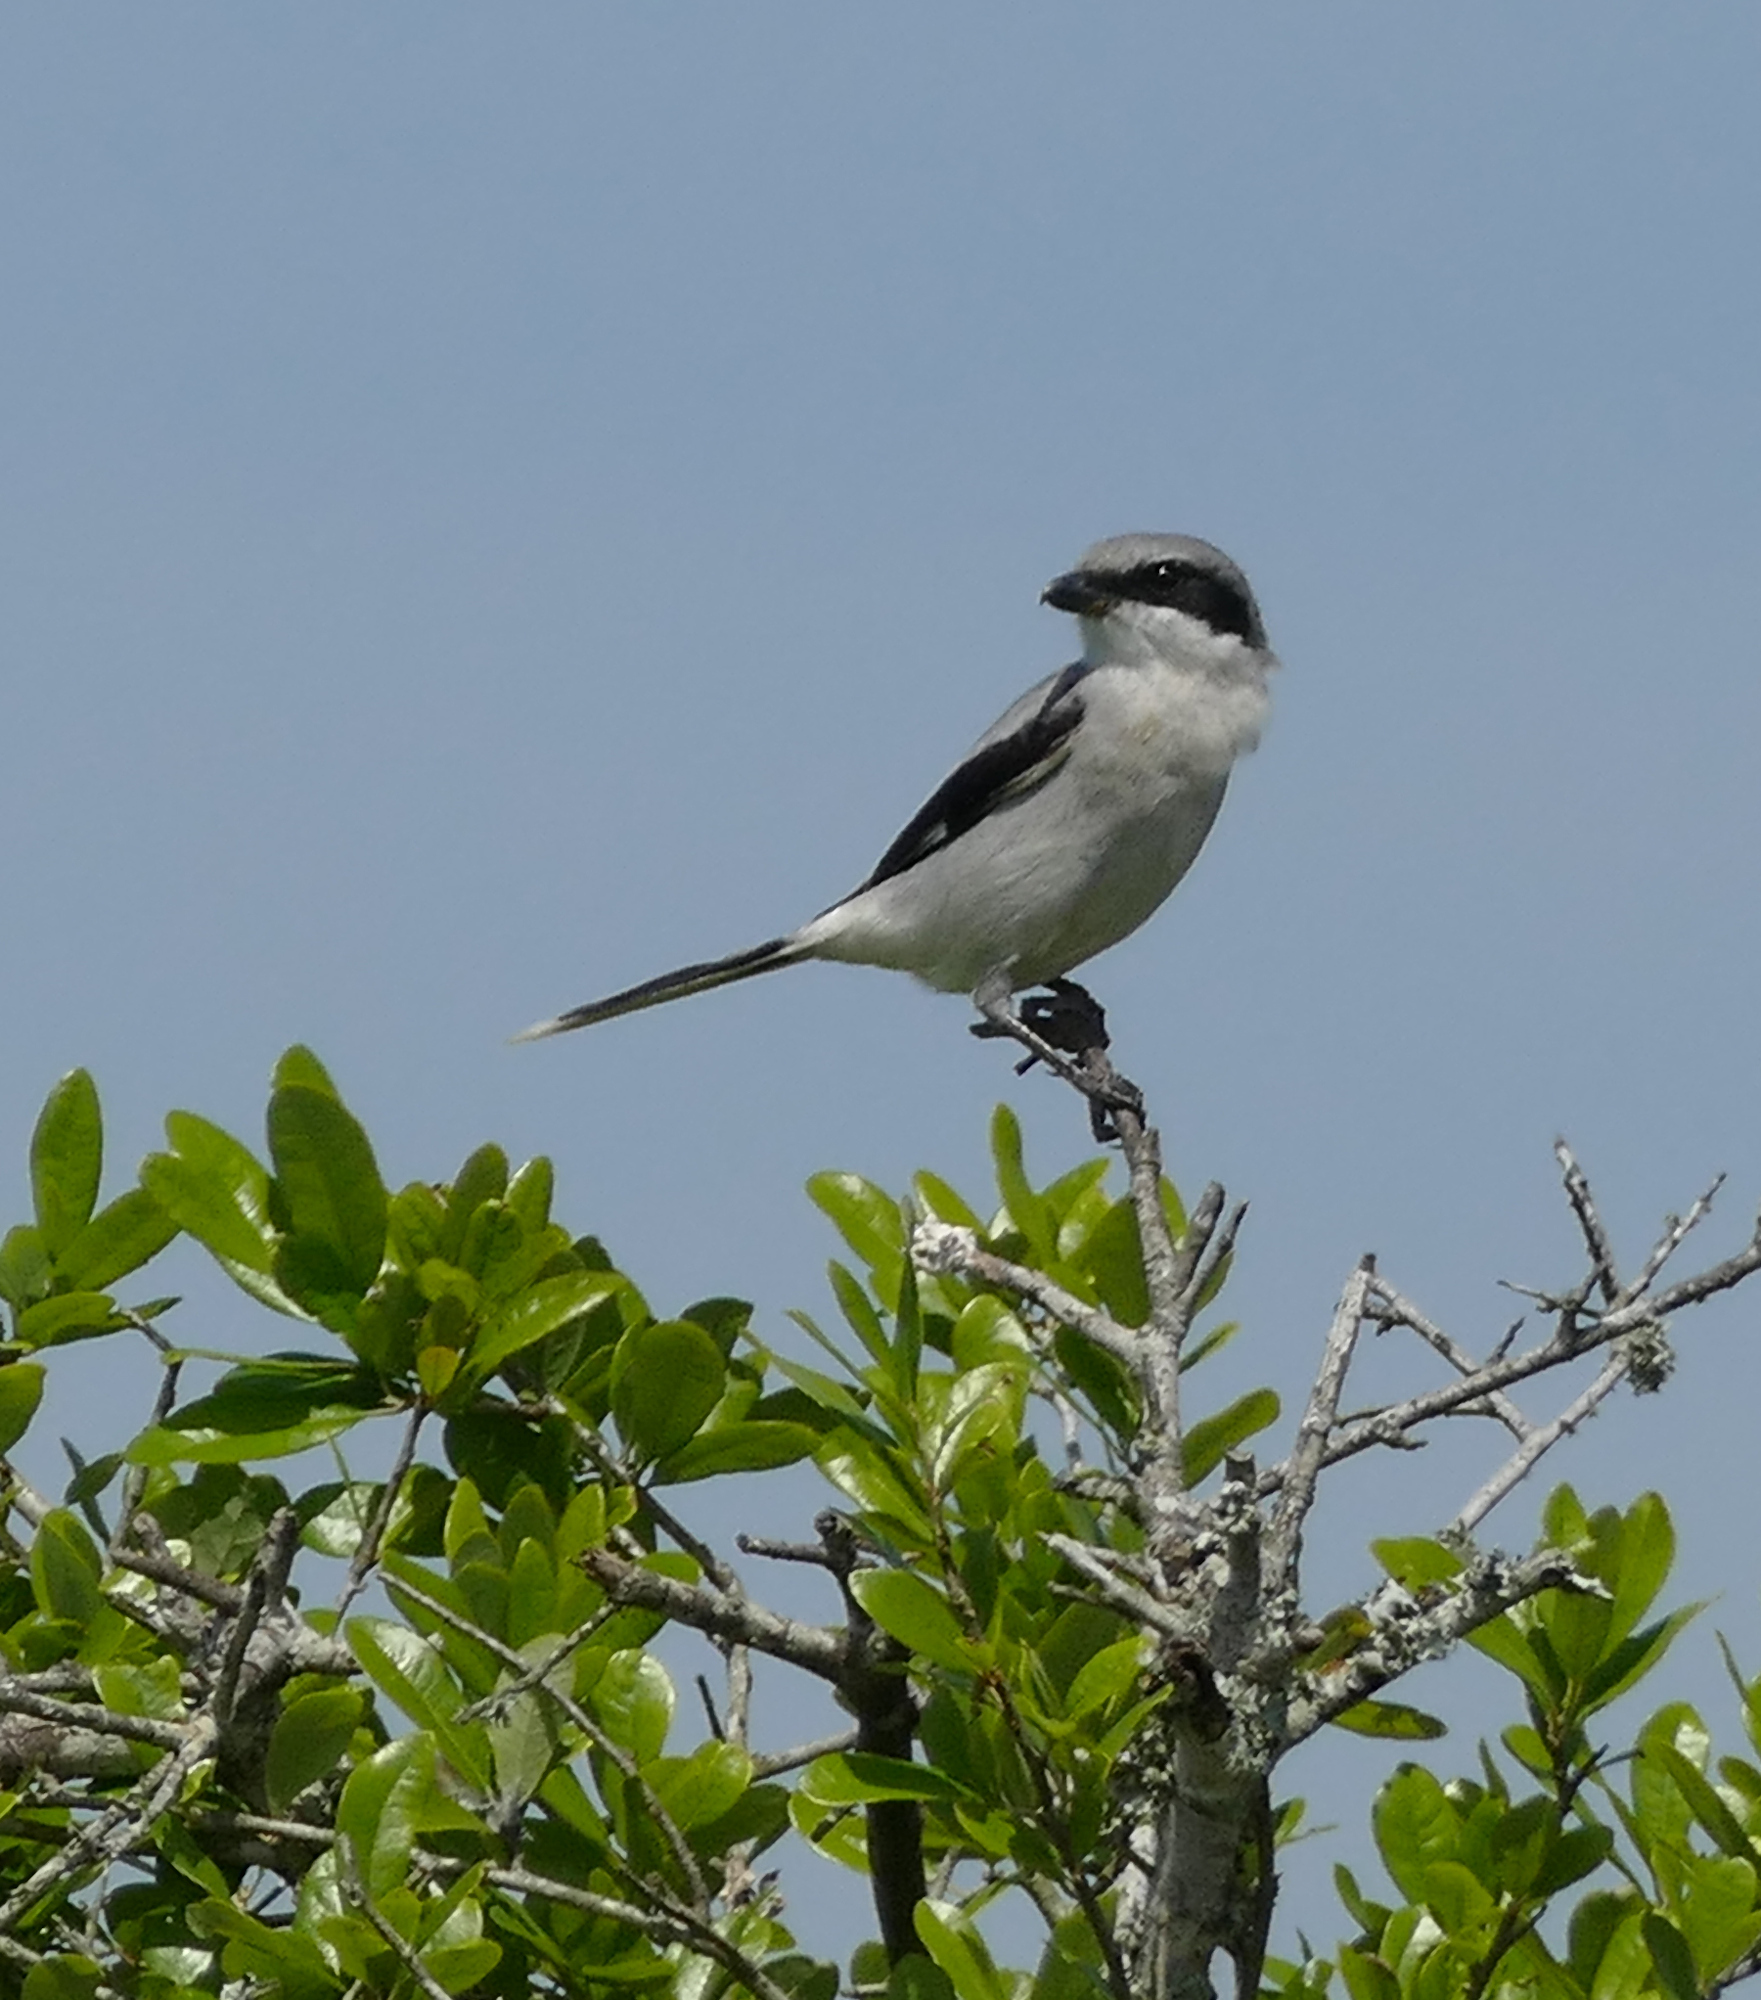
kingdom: Animalia
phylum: Chordata
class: Aves
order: Passeriformes
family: Laniidae
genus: Lanius
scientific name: Lanius ludovicianus
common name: Loggerhead shrike
